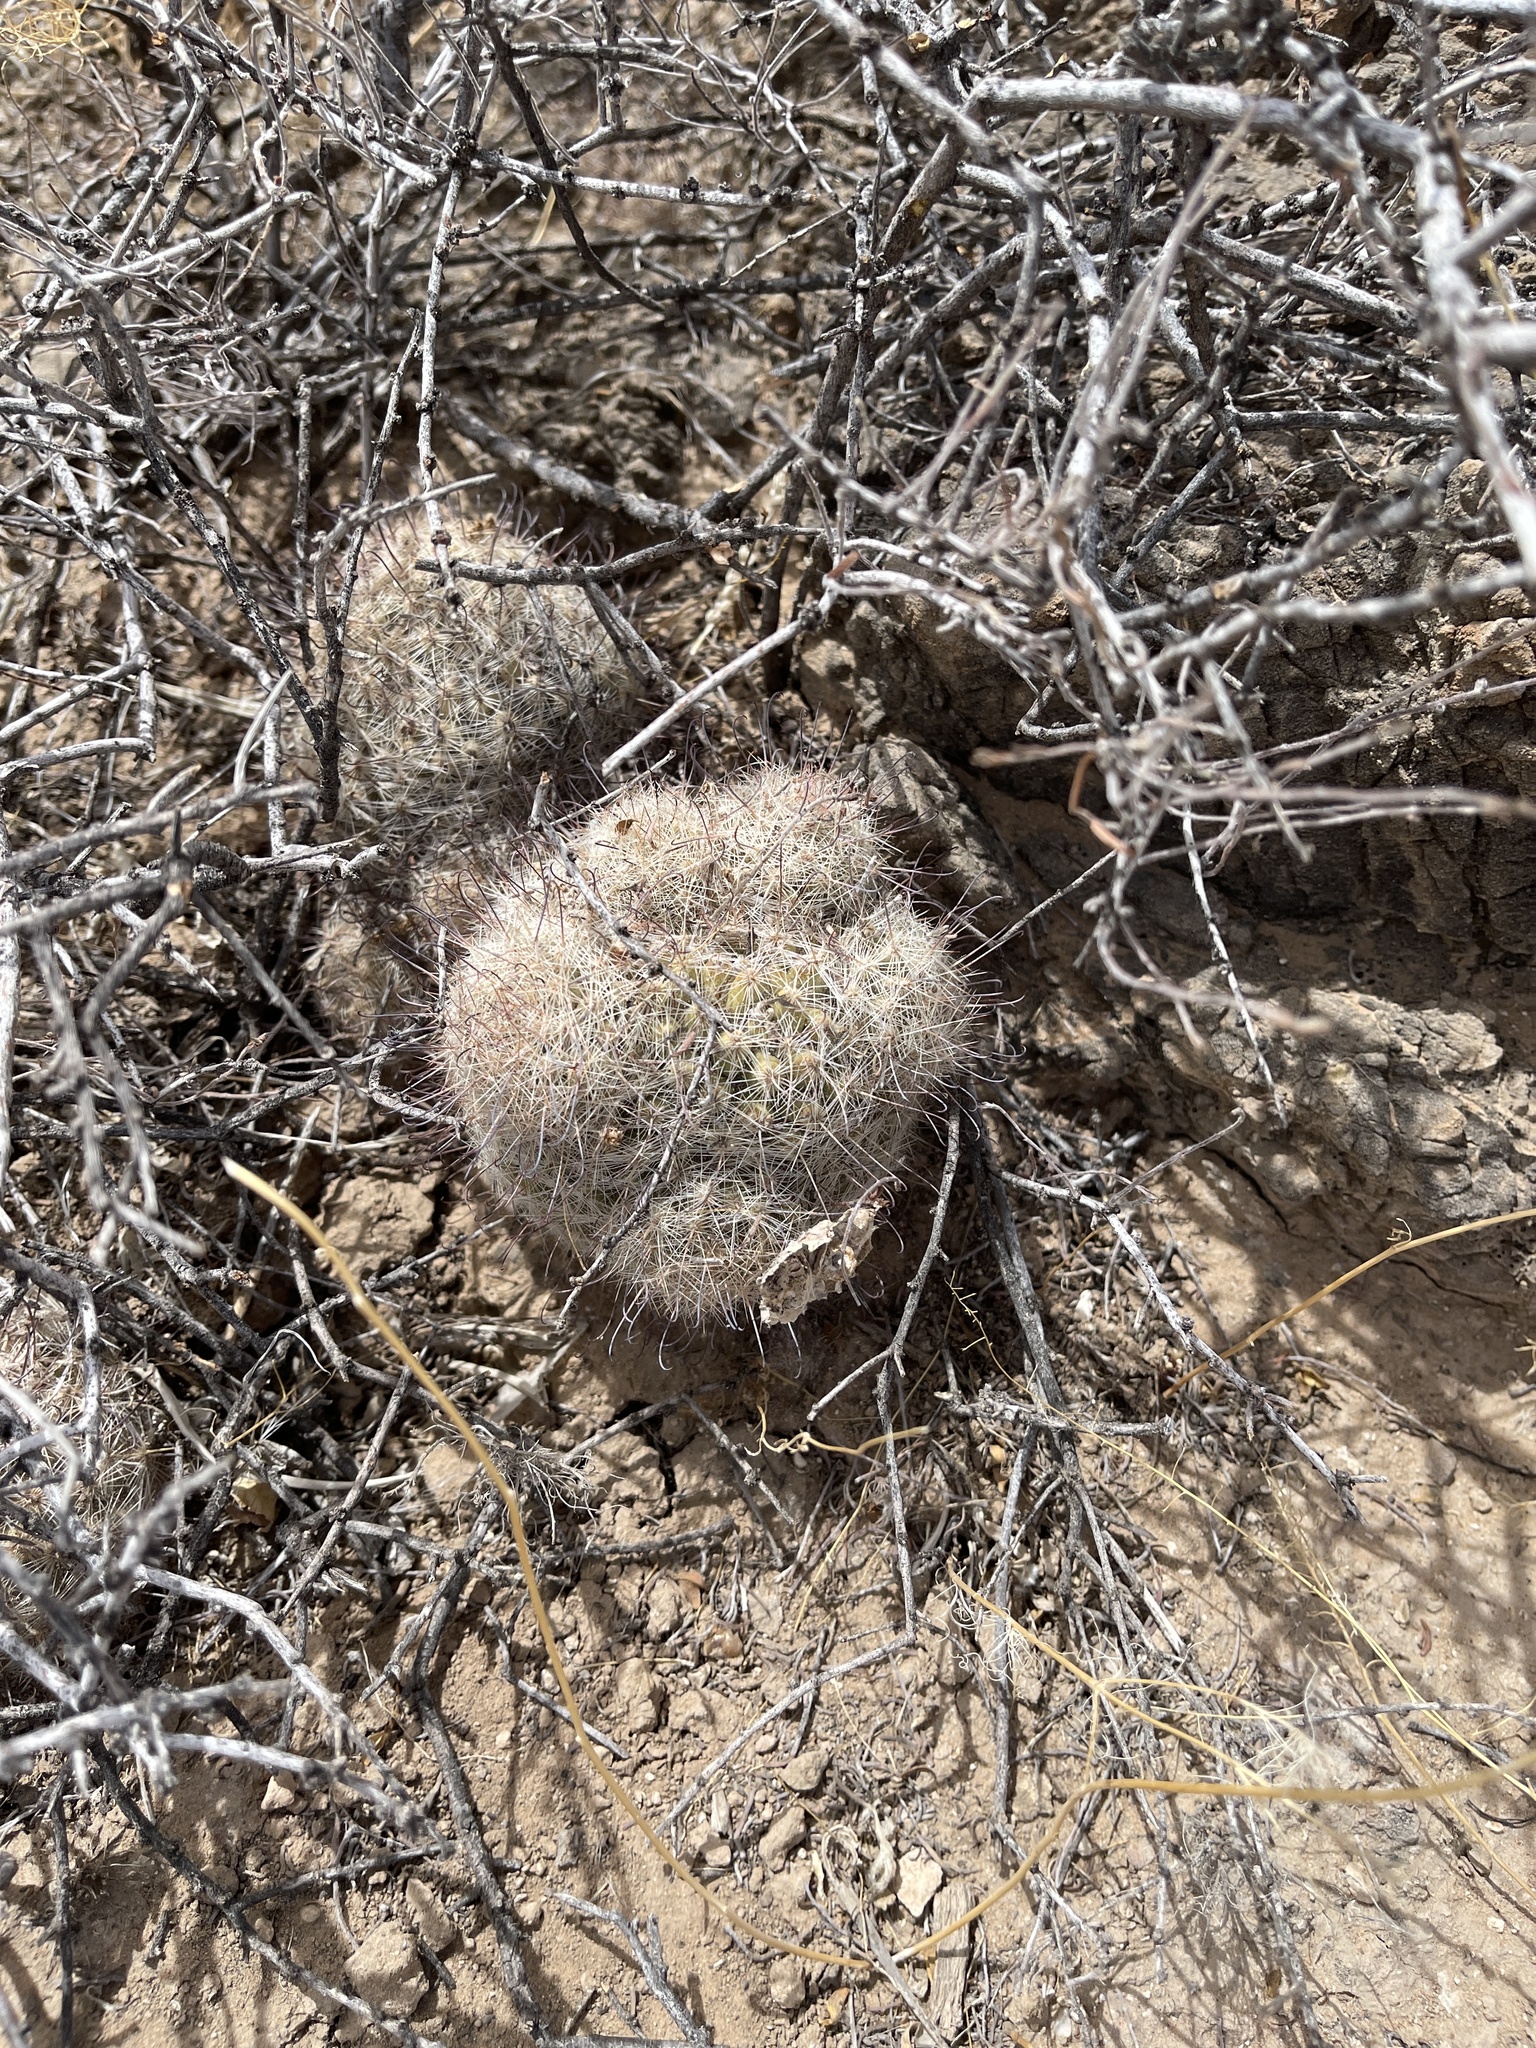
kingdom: Plantae
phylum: Tracheophyta
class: Magnoliopsida
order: Caryophyllales
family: Cactaceae
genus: Cochemiea
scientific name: Cochemiea grahamii
